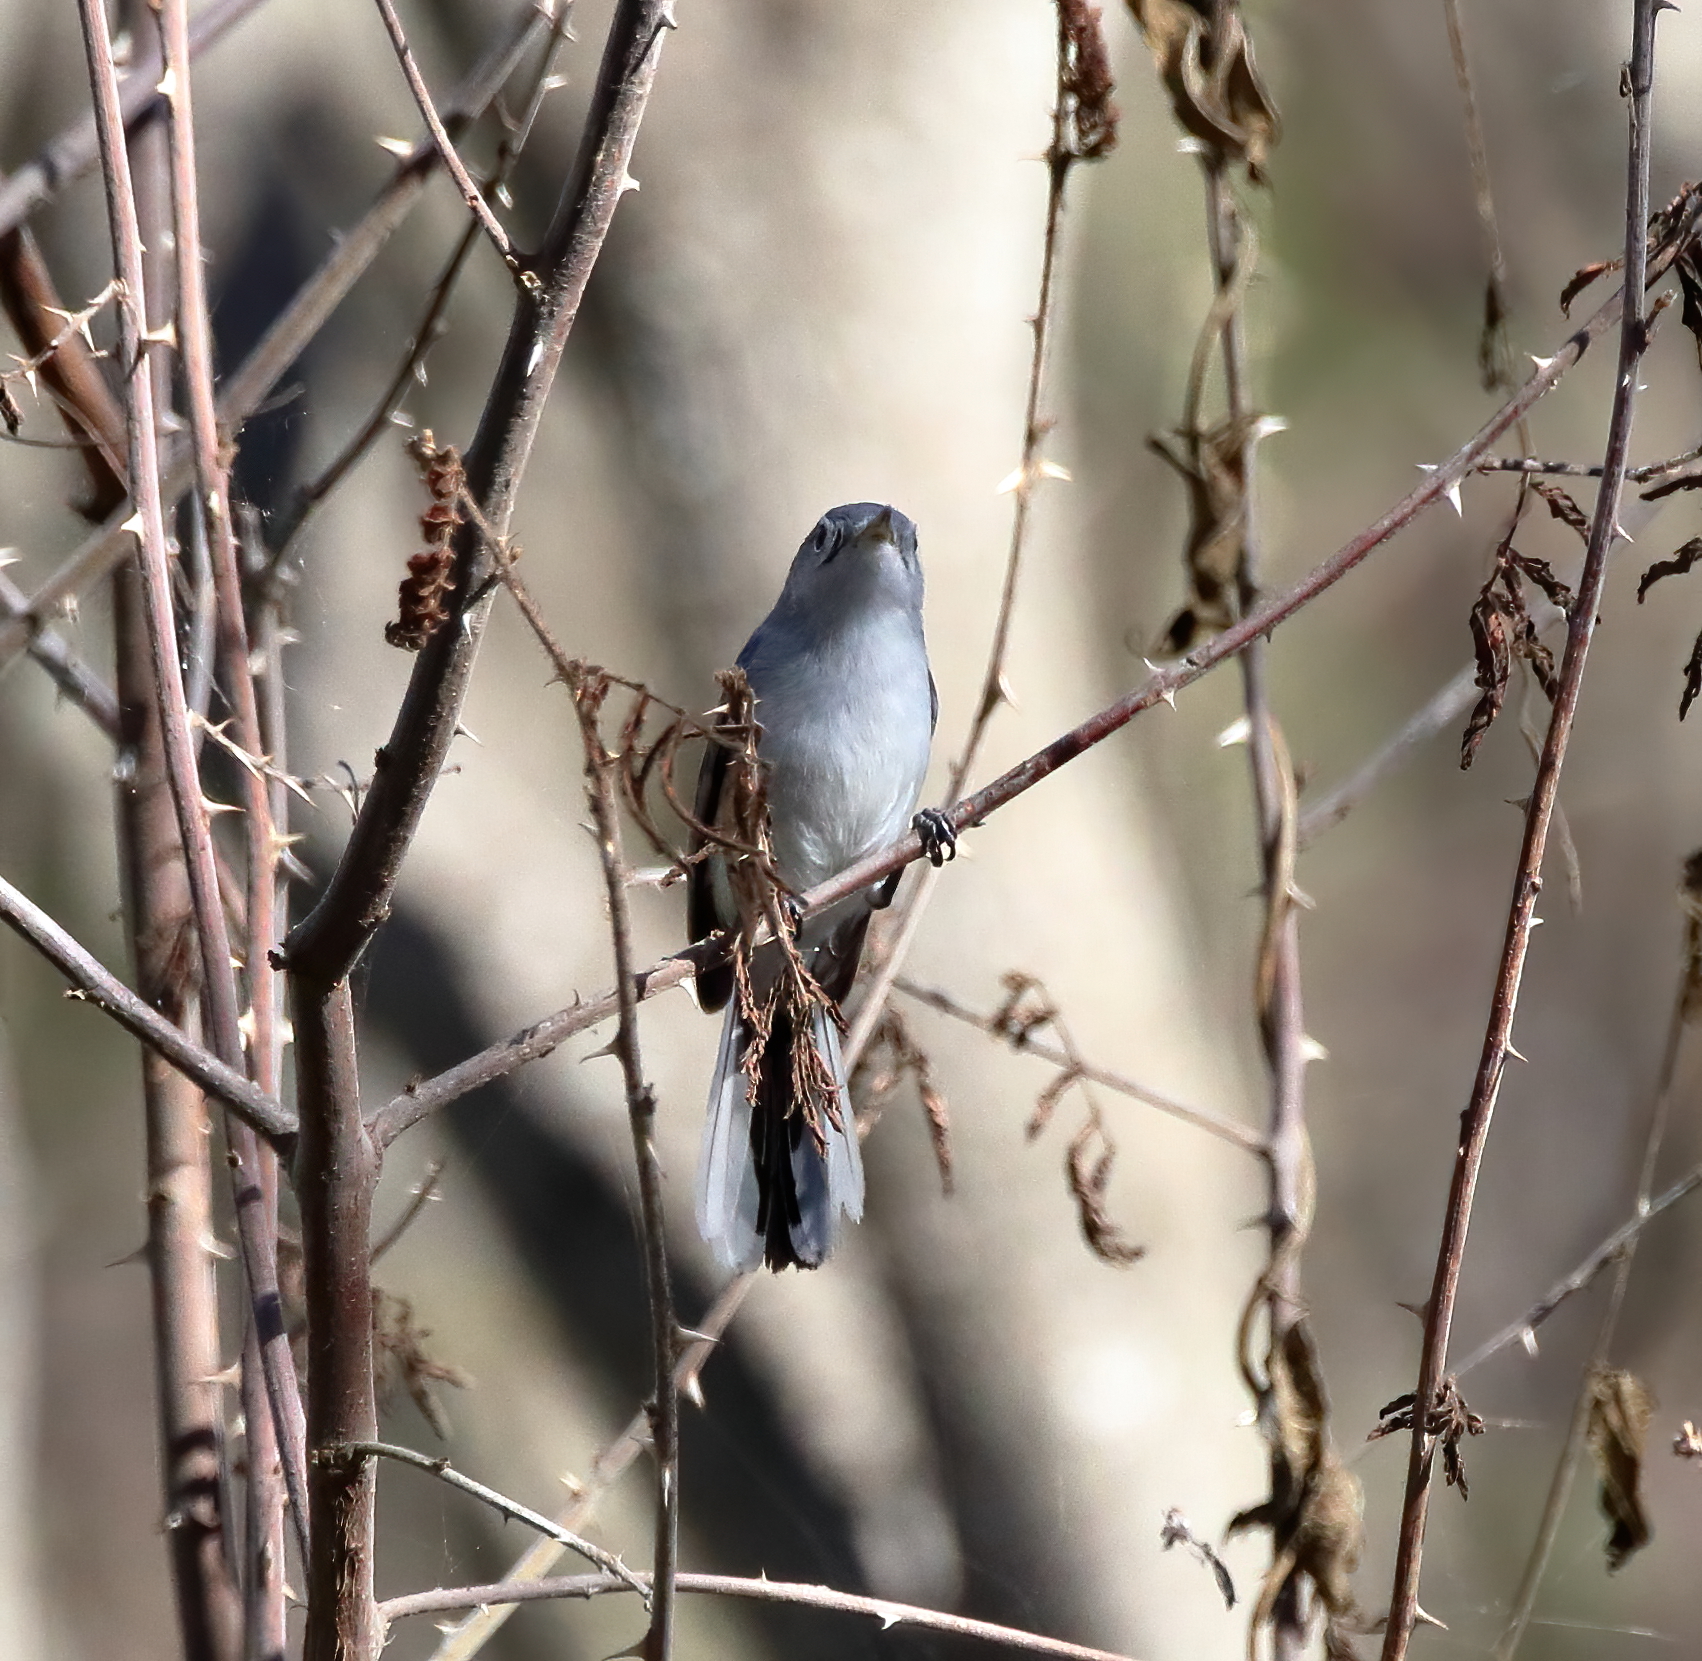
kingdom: Animalia
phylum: Chordata
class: Aves
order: Passeriformes
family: Polioptilidae
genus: Polioptila
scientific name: Polioptila caerulea
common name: Blue-gray gnatcatcher
